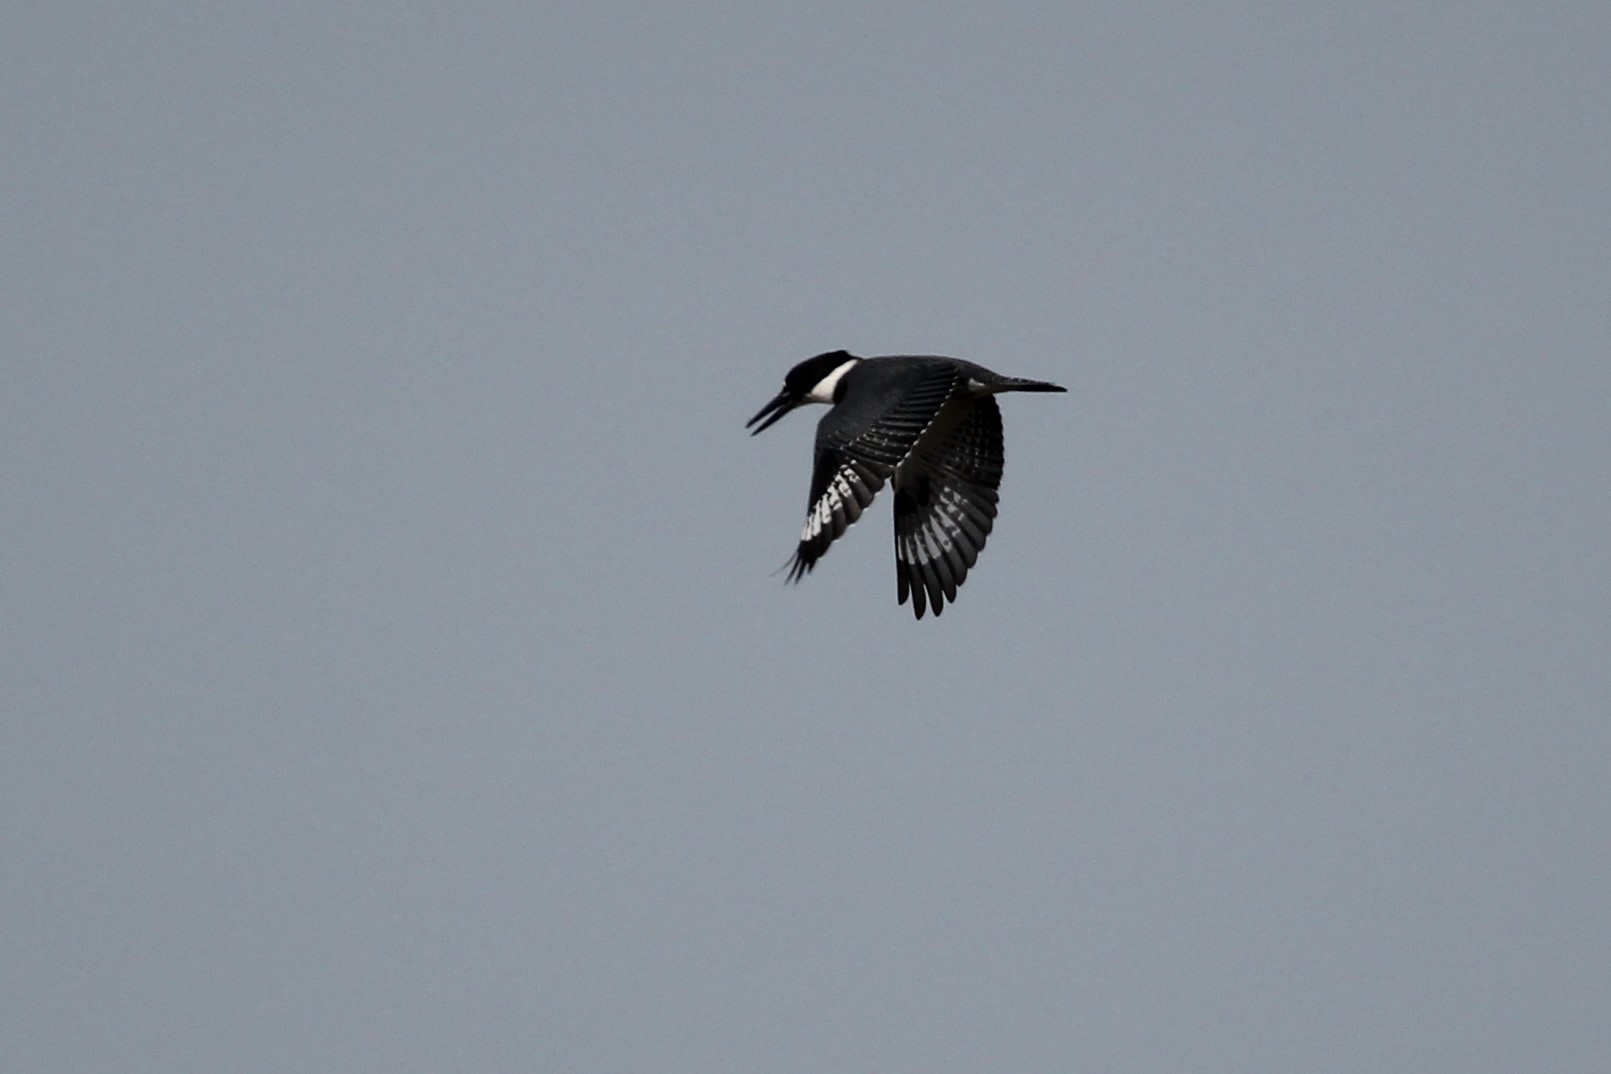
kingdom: Animalia
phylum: Chordata
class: Aves
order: Coraciiformes
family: Alcedinidae
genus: Megaceryle
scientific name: Megaceryle alcyon
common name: Belted kingfisher
